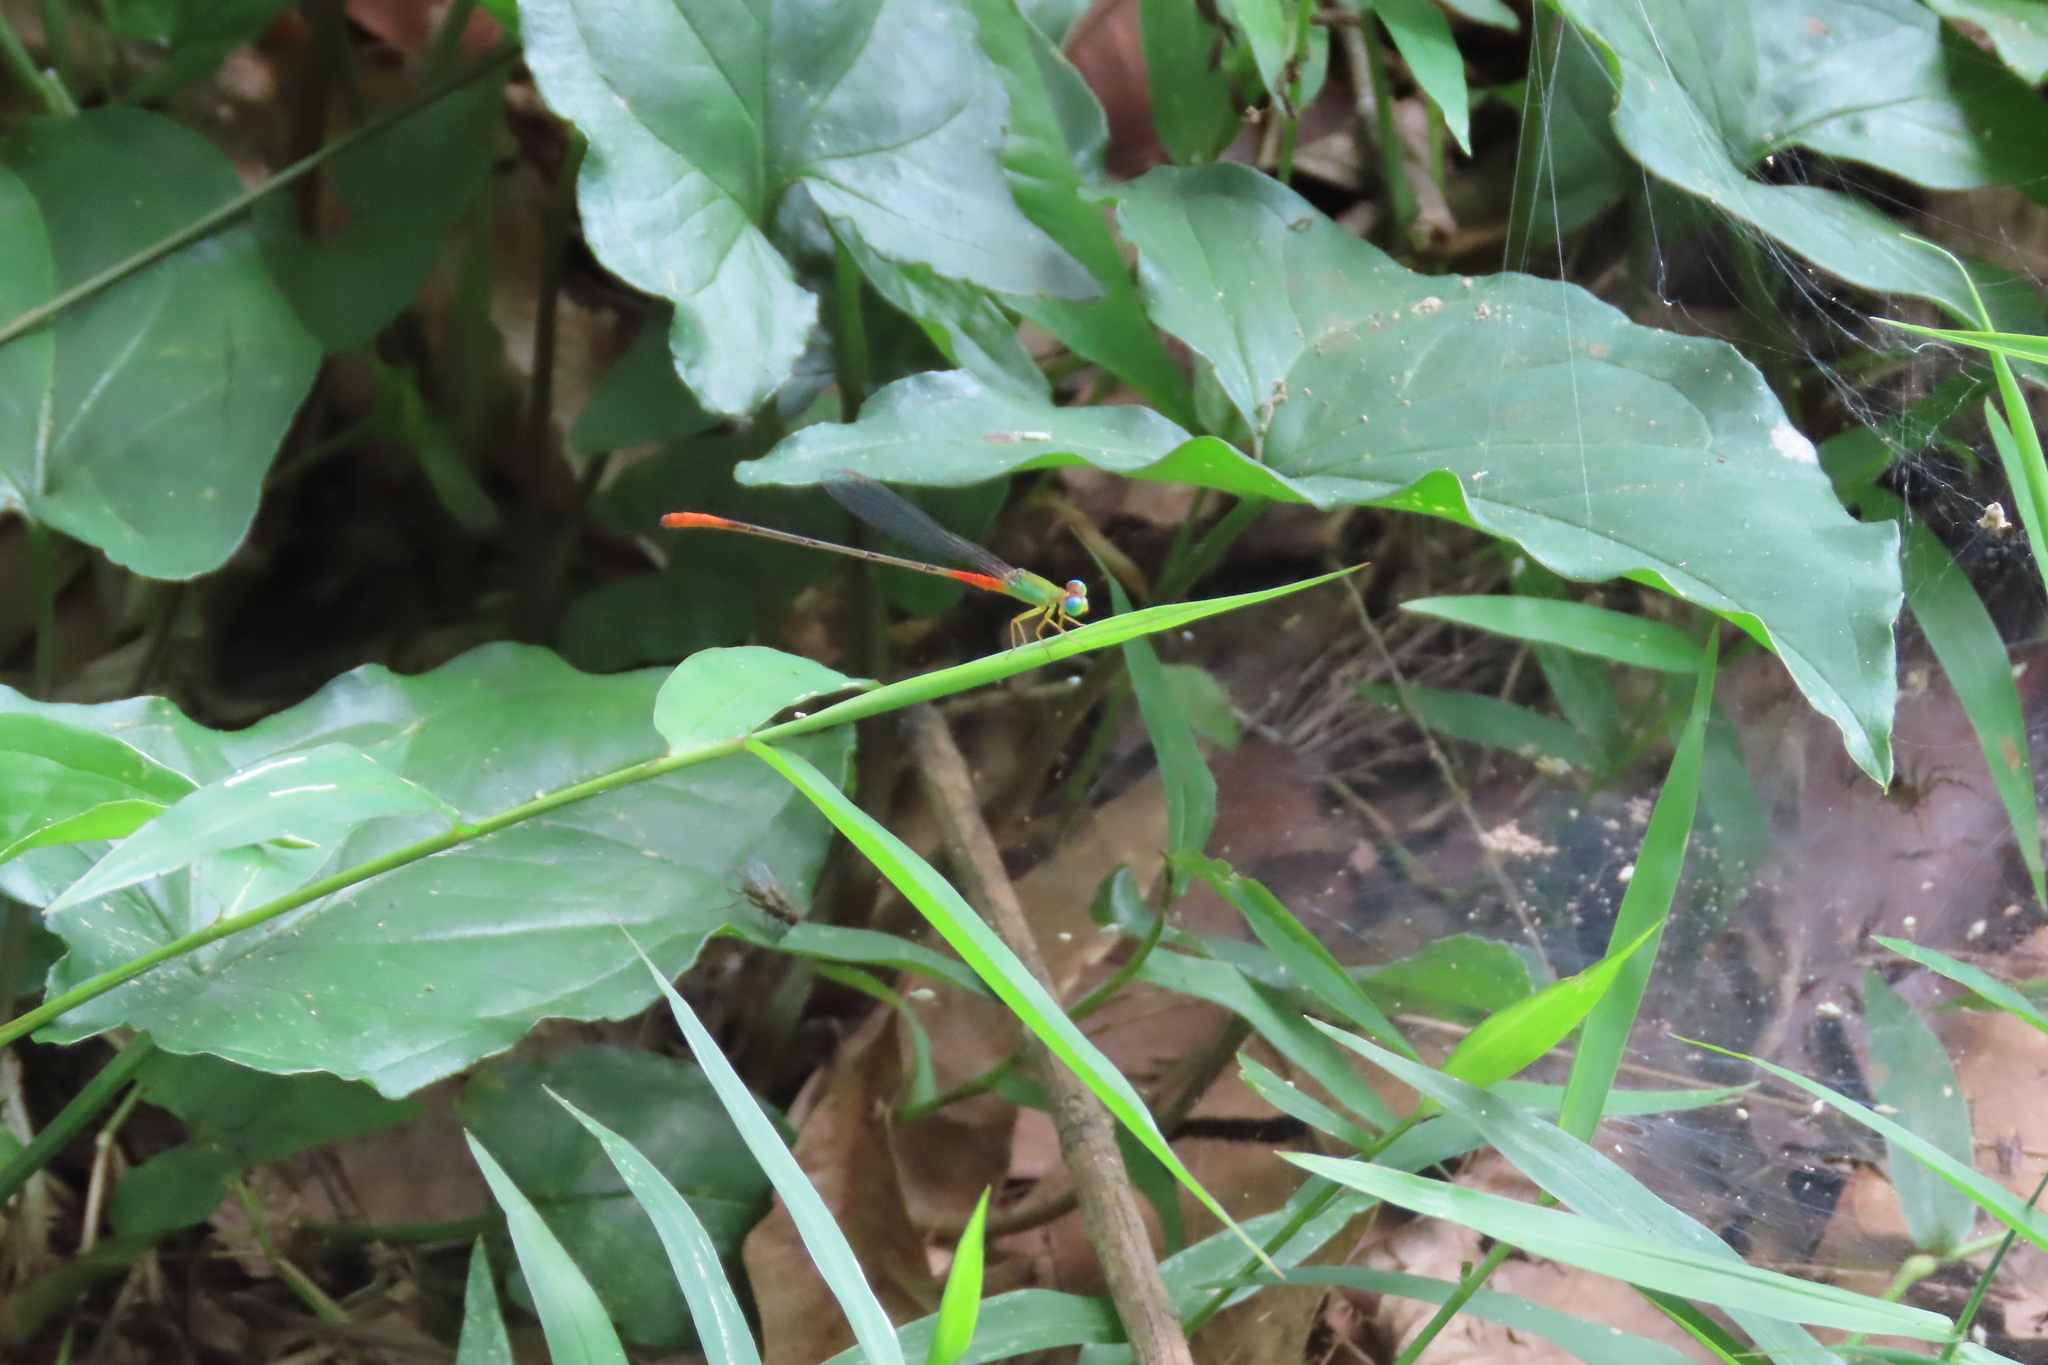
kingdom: Animalia
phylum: Arthropoda
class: Insecta
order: Odonata
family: Coenagrionidae
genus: Ceriagrion
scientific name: Ceriagrion cerinorubellum
